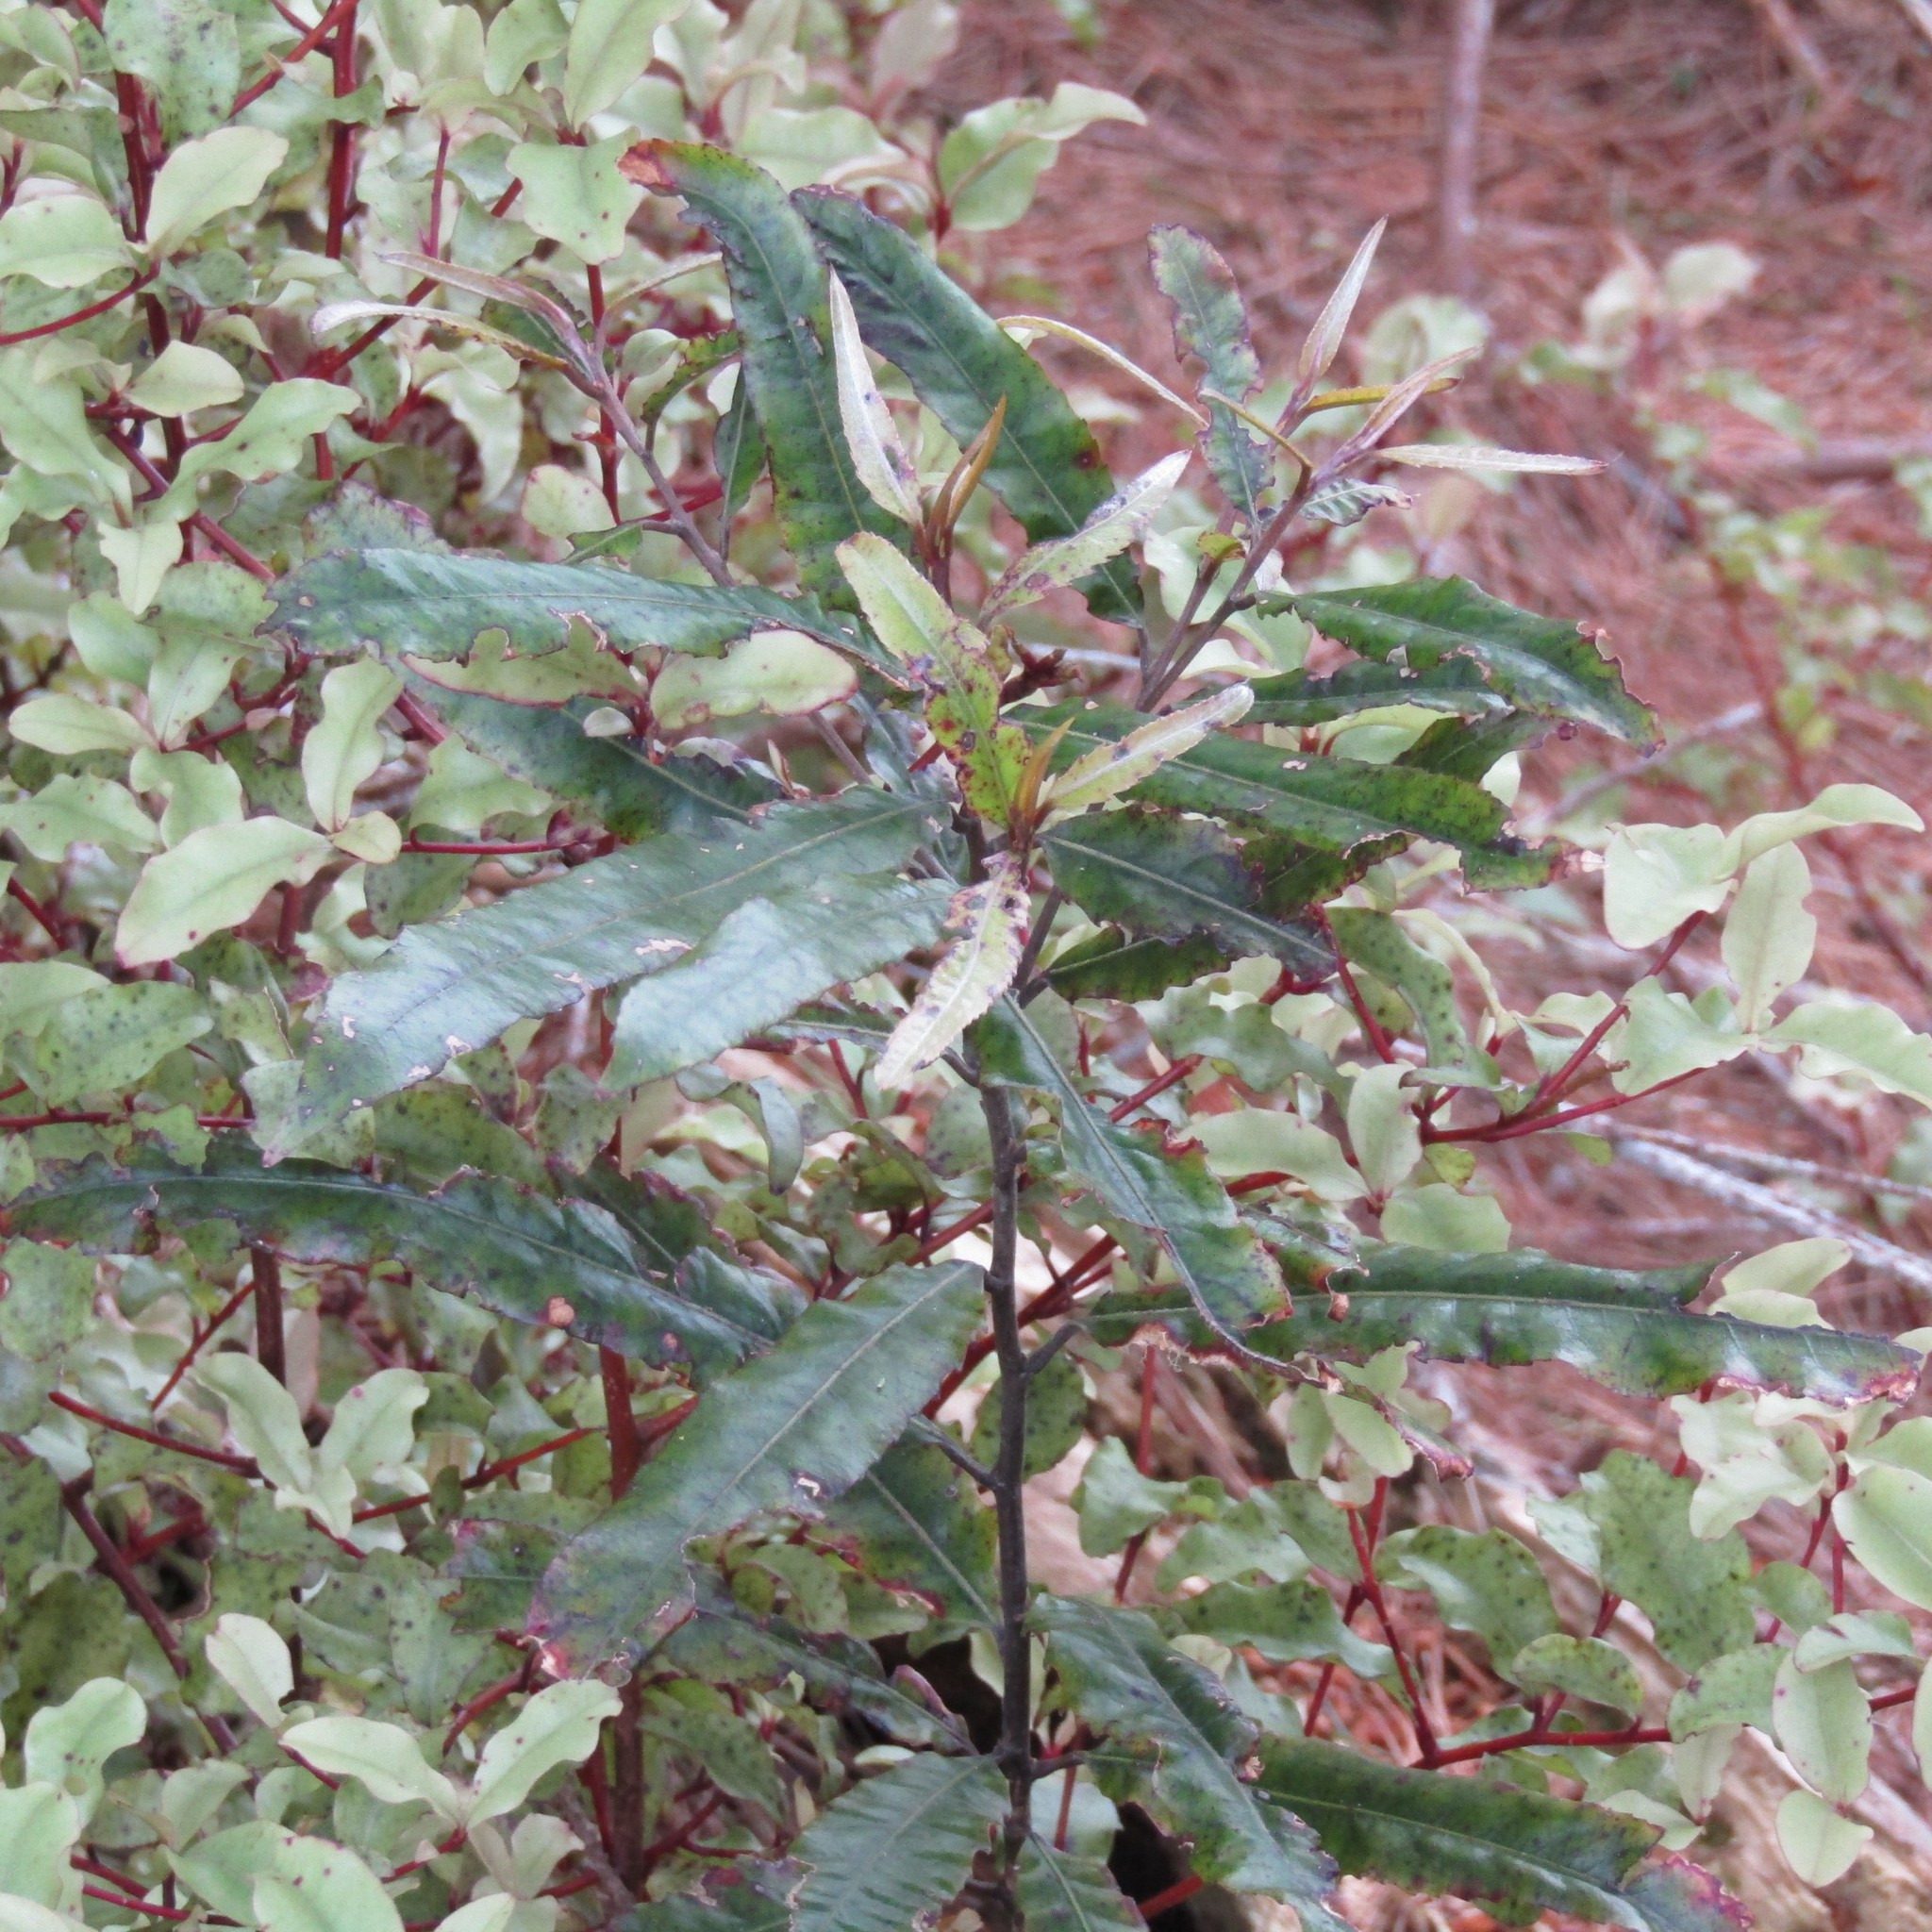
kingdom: Plantae
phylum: Tracheophyta
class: Magnoliopsida
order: Oxalidales
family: Elaeocarpaceae
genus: Elaeocarpus
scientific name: Elaeocarpus dentatus
